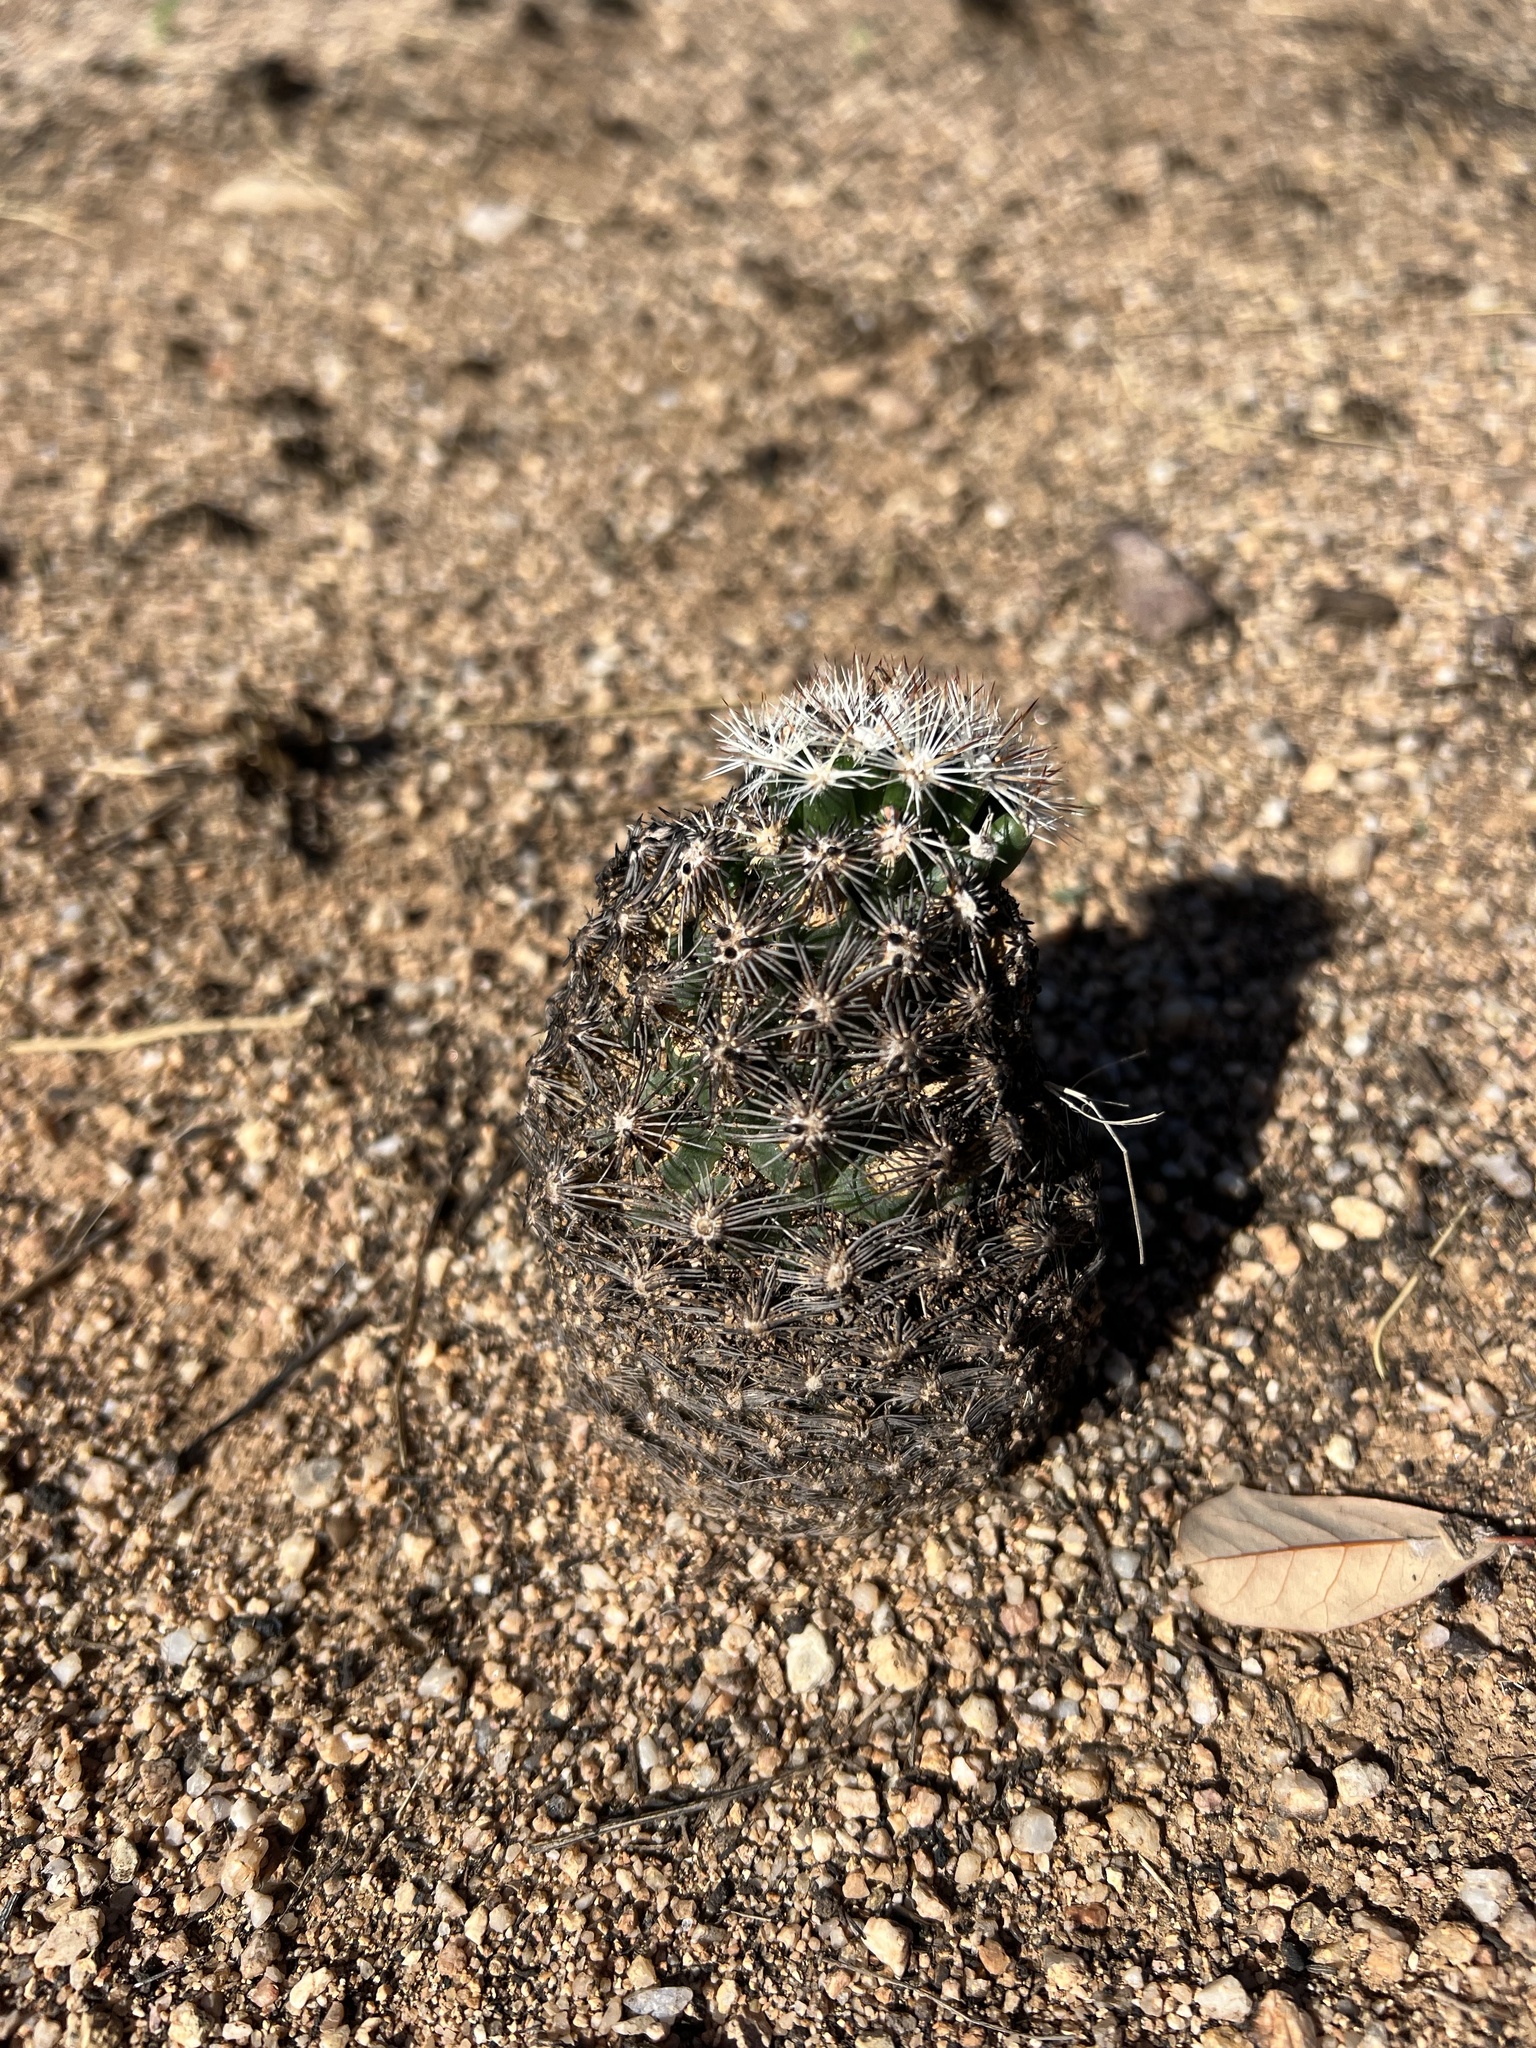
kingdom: Plantae
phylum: Tracheophyta
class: Magnoliopsida
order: Caryophyllales
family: Cactaceae
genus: Sclerocactus
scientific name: Sclerocactus johnsonii
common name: Eight-spine fishhook cactus
